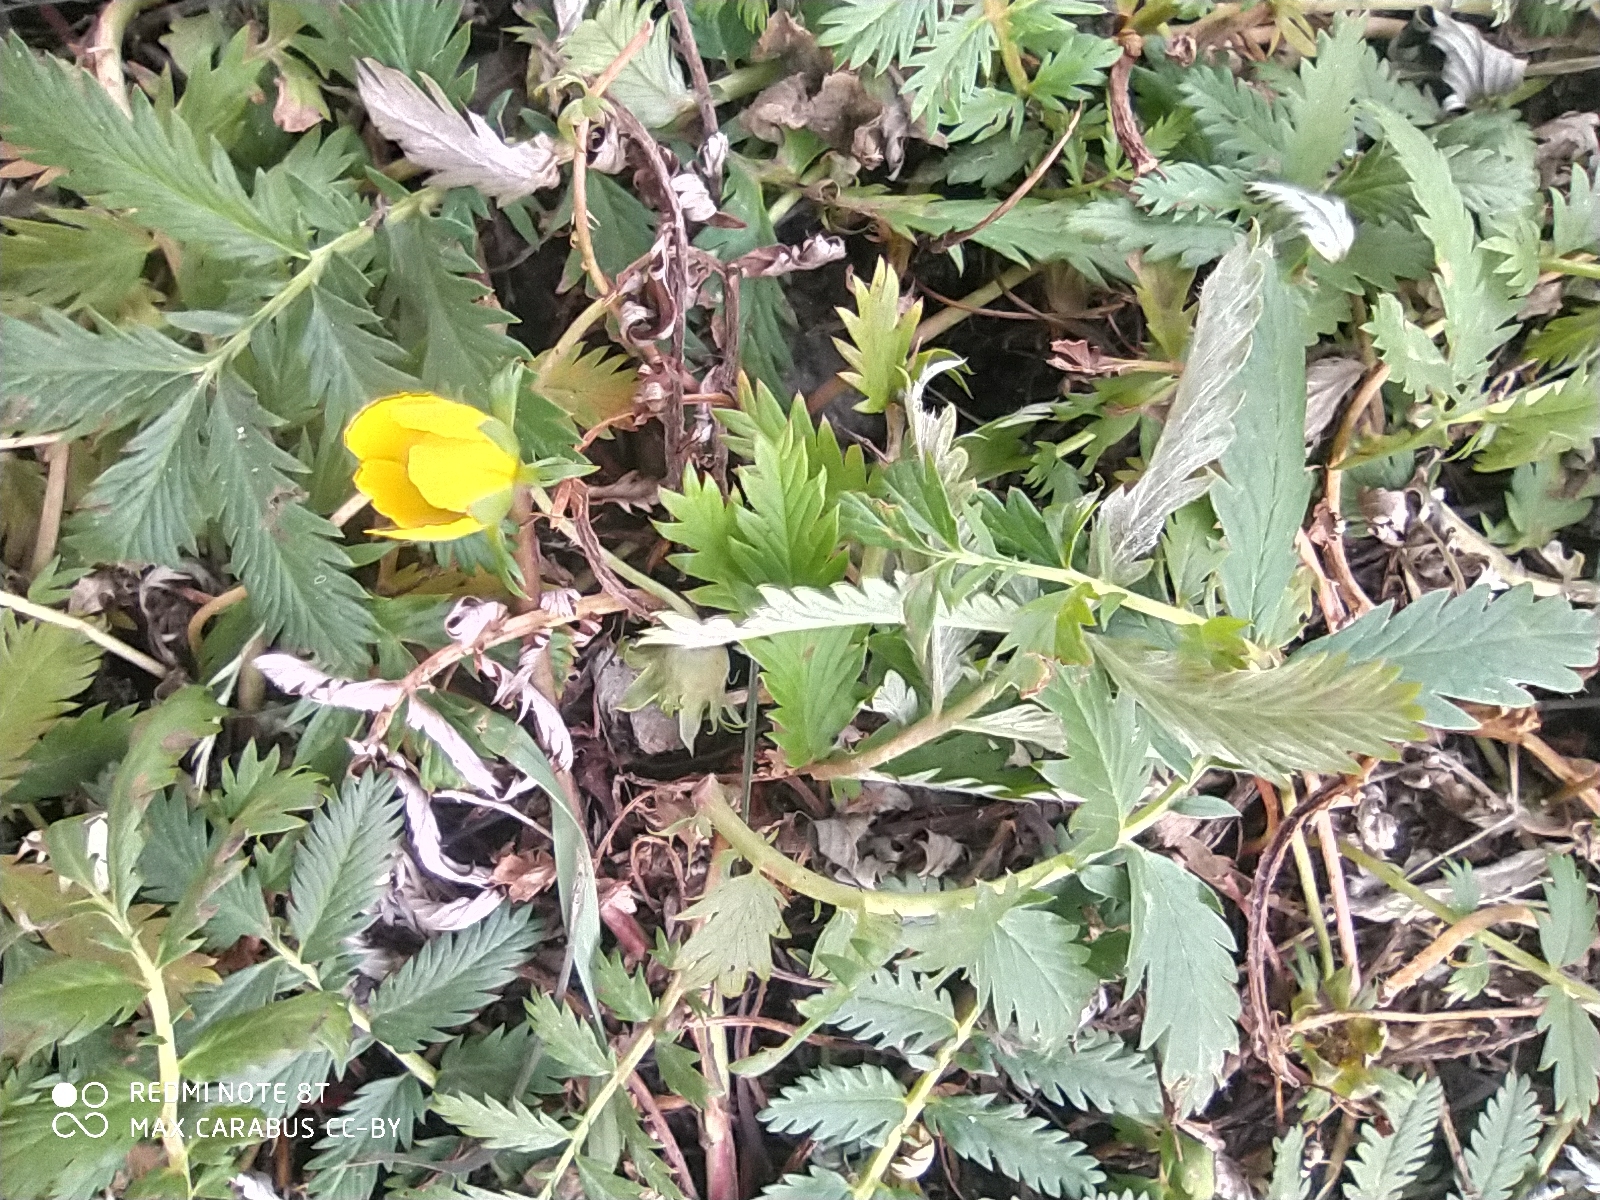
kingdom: Plantae
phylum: Tracheophyta
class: Magnoliopsida
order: Rosales
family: Rosaceae
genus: Argentina
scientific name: Argentina anserina
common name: Common silverweed
